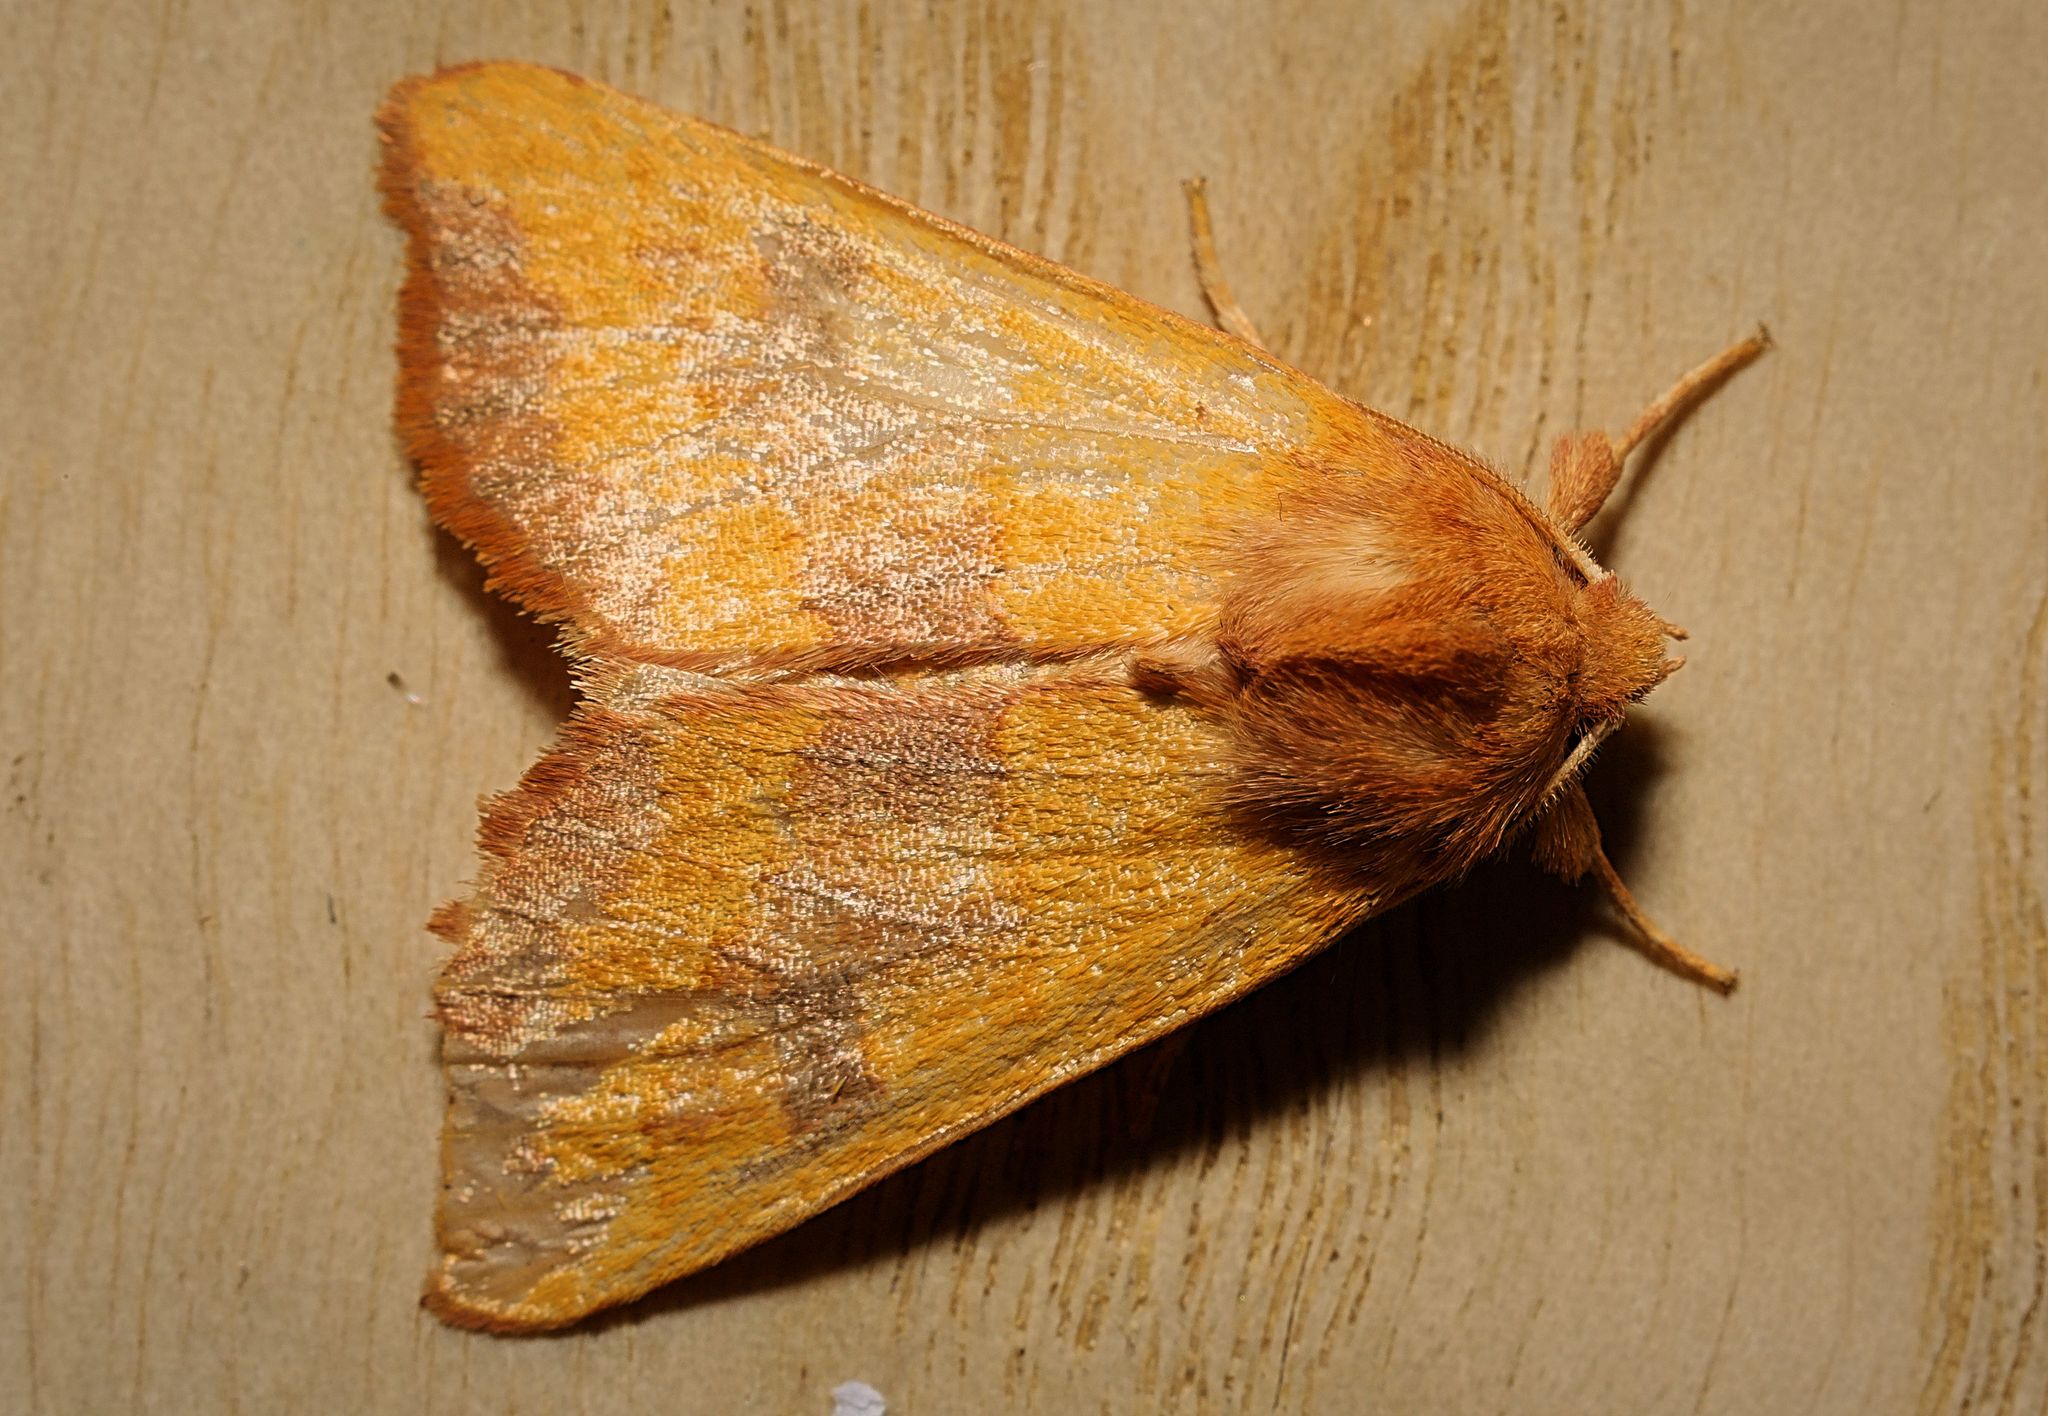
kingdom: Animalia
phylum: Arthropoda
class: Insecta
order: Lepidoptera
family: Noctuidae
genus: Atethmia
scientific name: Atethmia centrago
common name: Centre-barred sallow
